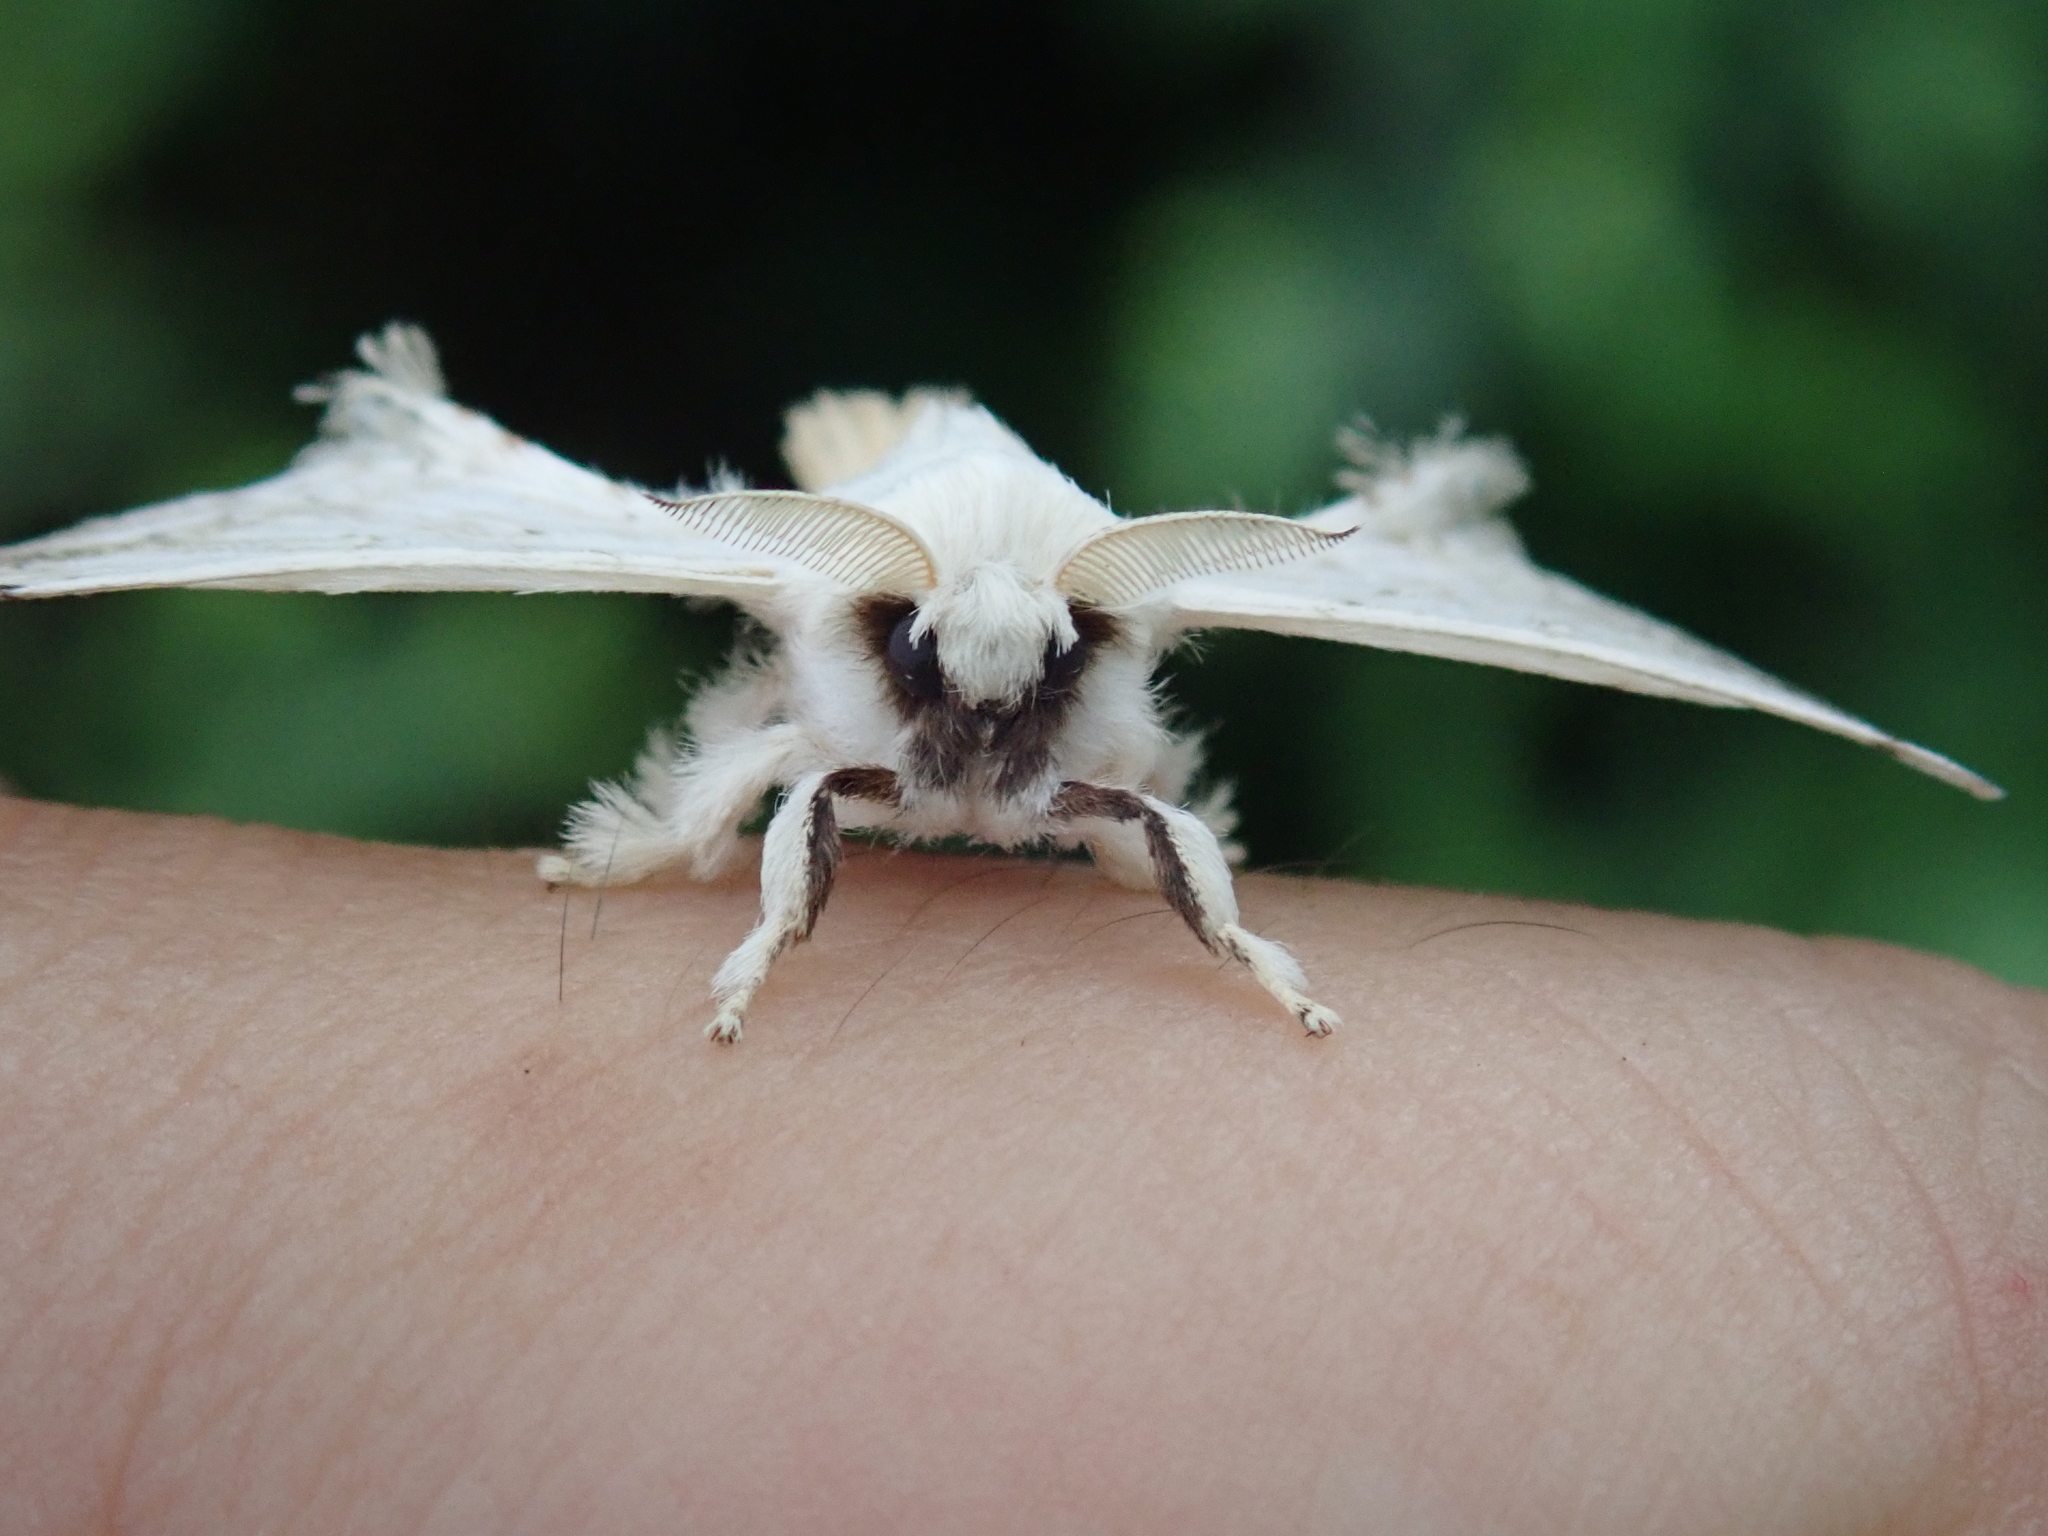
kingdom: Animalia
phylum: Arthropoda
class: Insecta
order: Lepidoptera
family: Bombycidae
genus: Ernolatia
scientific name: Ernolatia moorei
